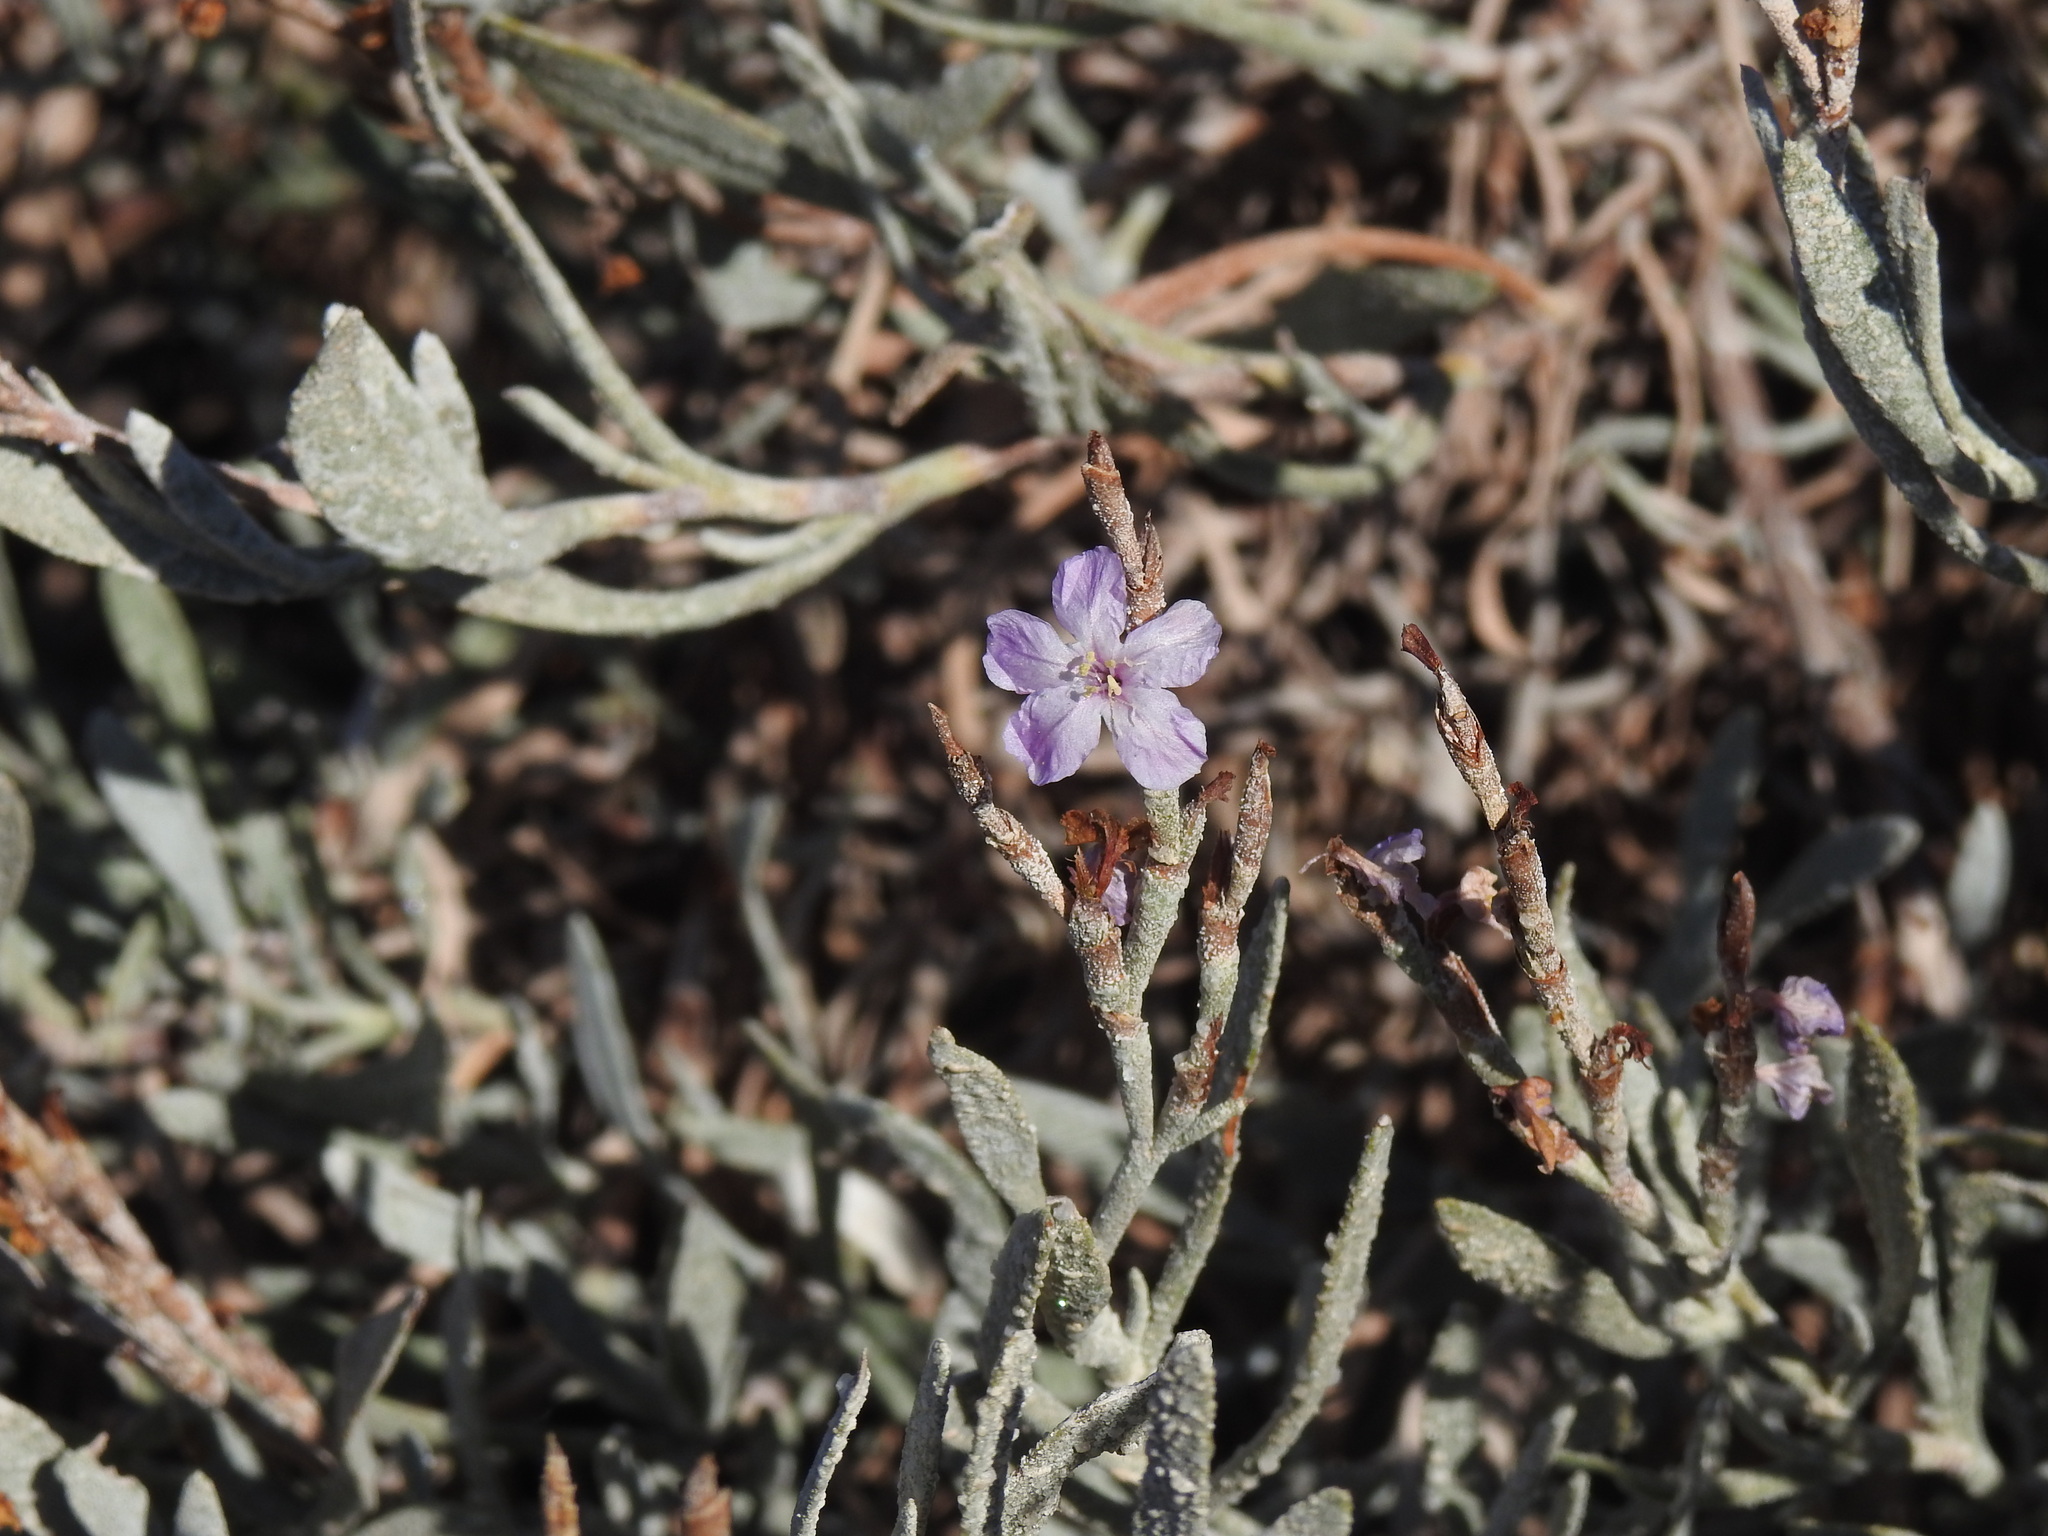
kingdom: Plantae
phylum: Tracheophyta
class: Magnoliopsida
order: Caryophyllales
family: Plumbaginaceae
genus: Limoniastrum
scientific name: Limoniastrum monopetalum
